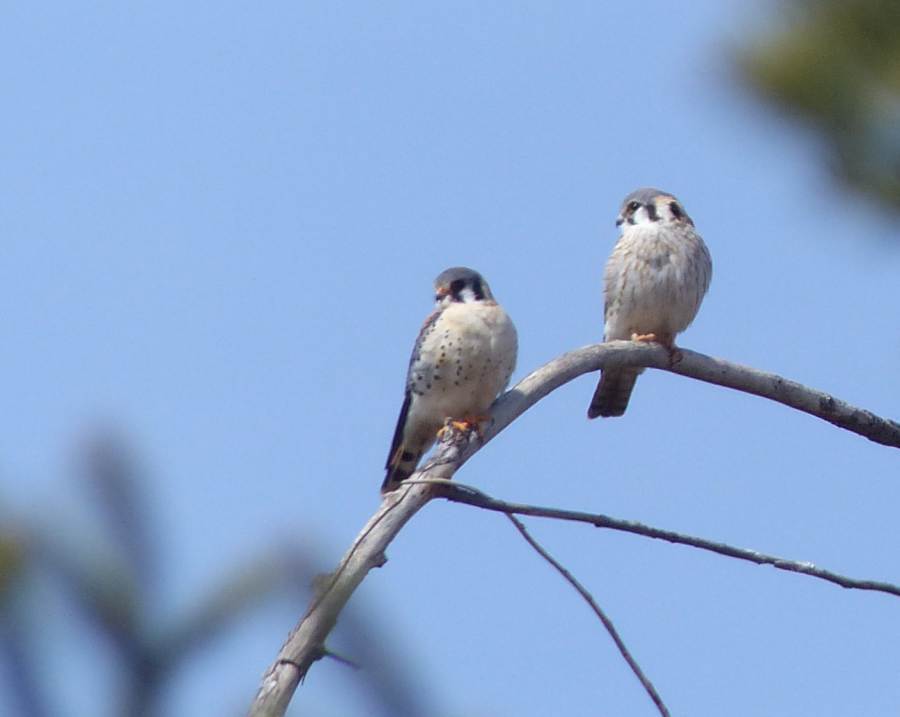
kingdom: Animalia
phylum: Chordata
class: Aves
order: Falconiformes
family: Falconidae
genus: Falco
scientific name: Falco sparverius
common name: American kestrel
